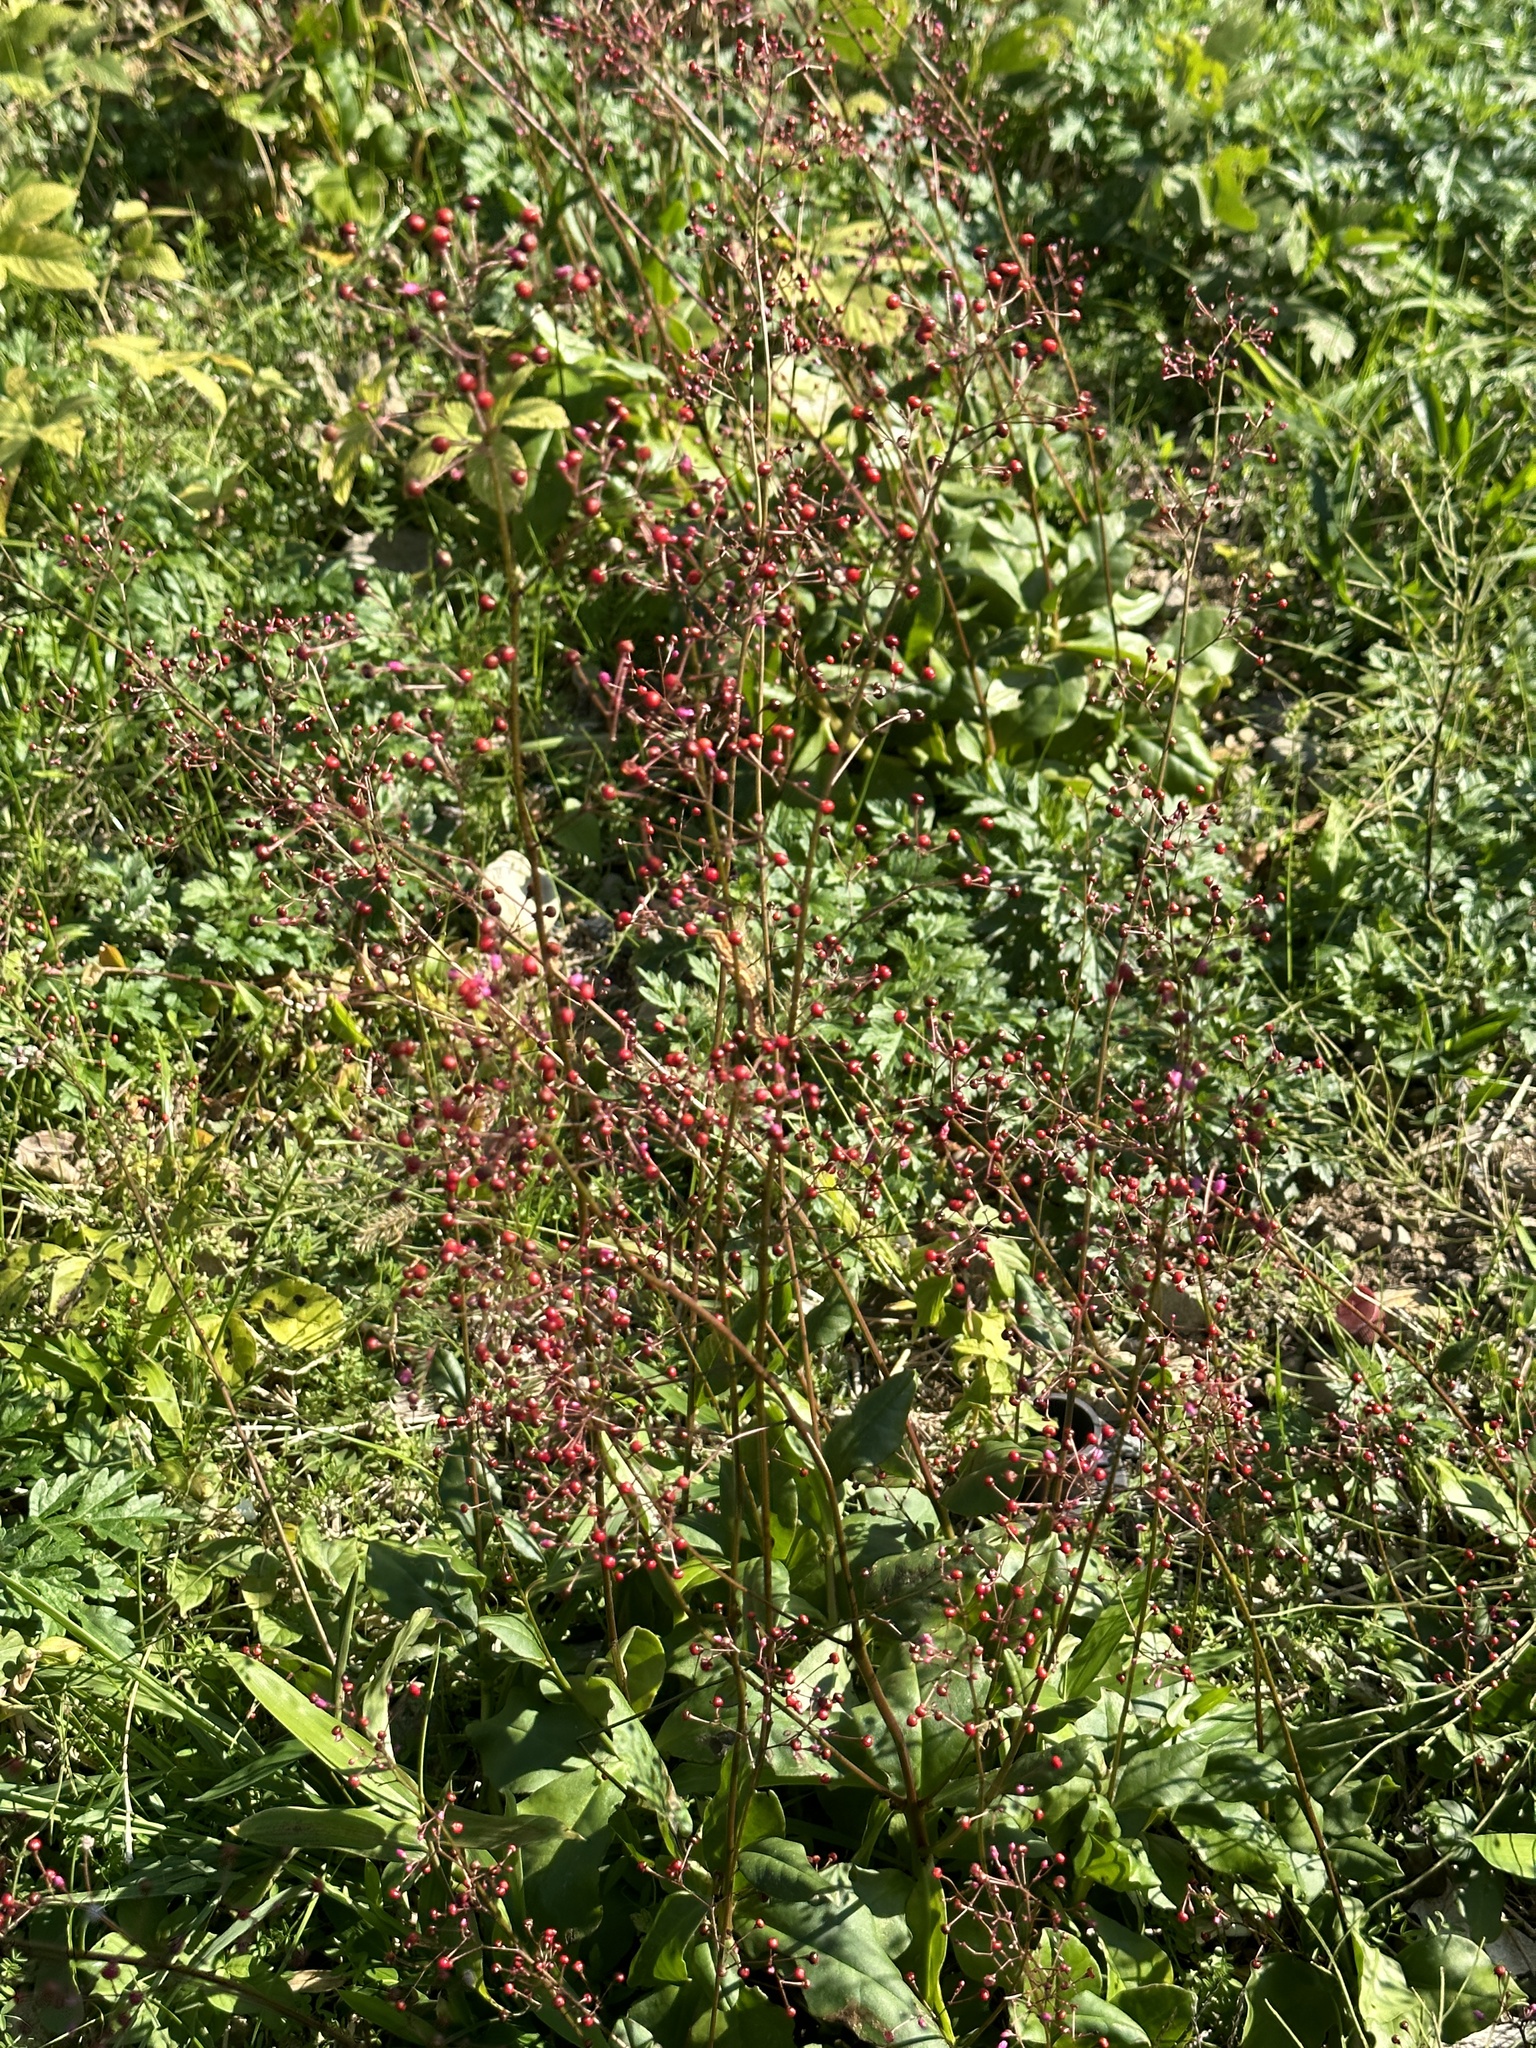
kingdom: Plantae
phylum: Tracheophyta
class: Magnoliopsida
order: Caryophyllales
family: Talinaceae
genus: Talinum
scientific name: Talinum paniculatum
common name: Jewels of opar
